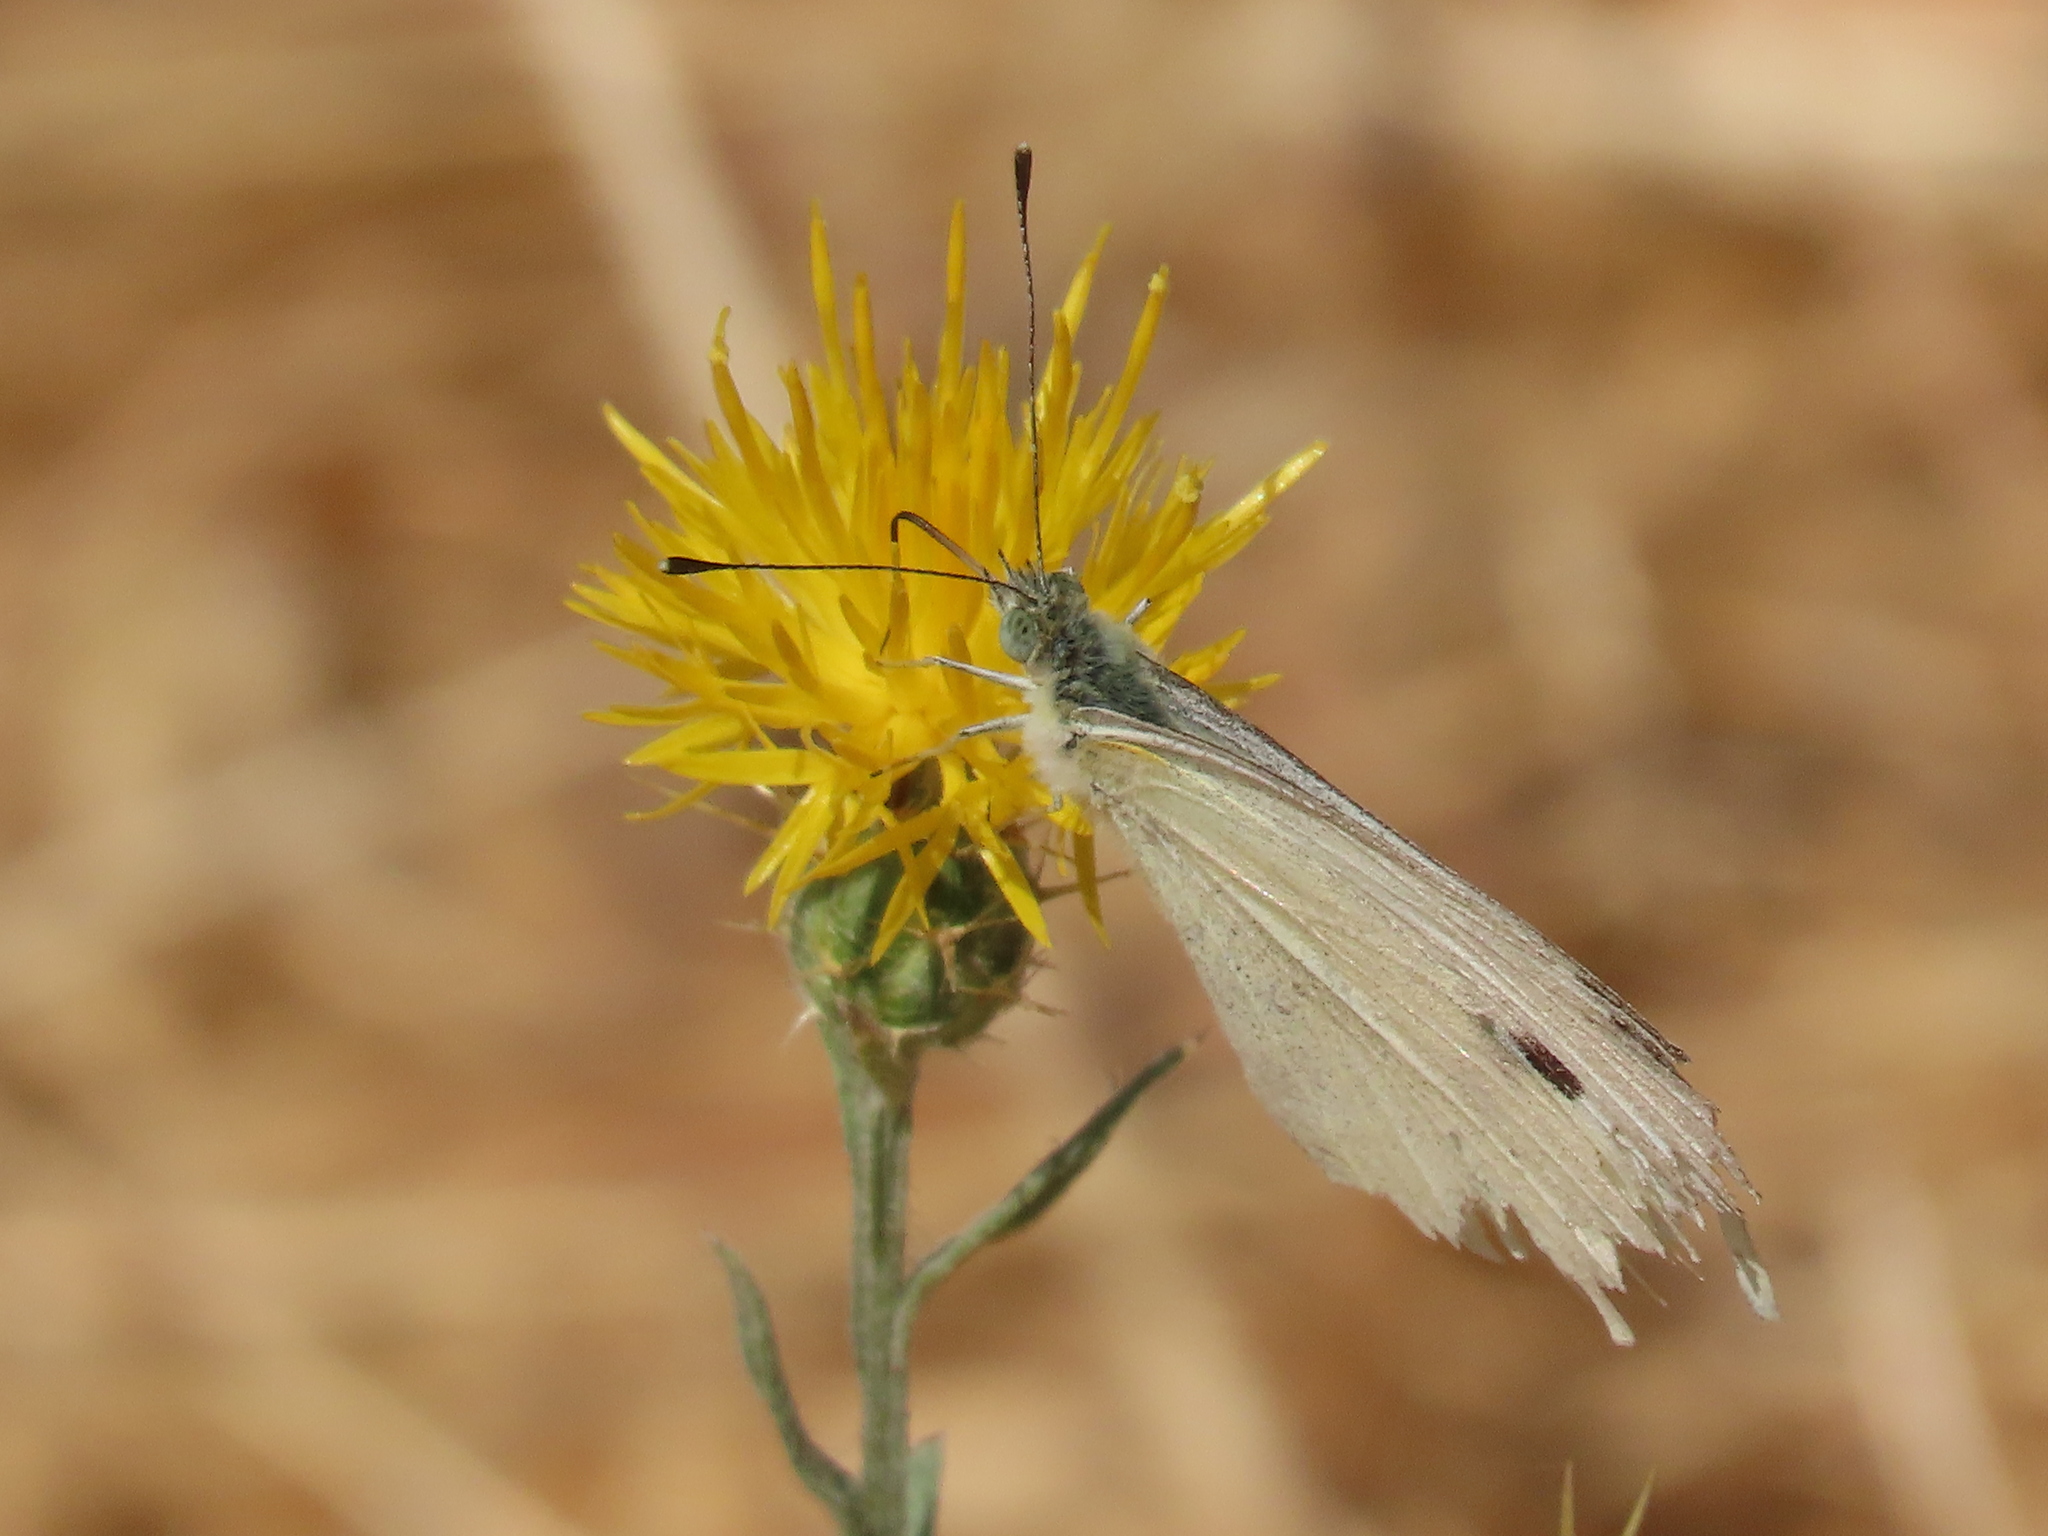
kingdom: Animalia
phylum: Arthropoda
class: Insecta
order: Lepidoptera
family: Pieridae
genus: Pieris
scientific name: Pieris rapae
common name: Small white
